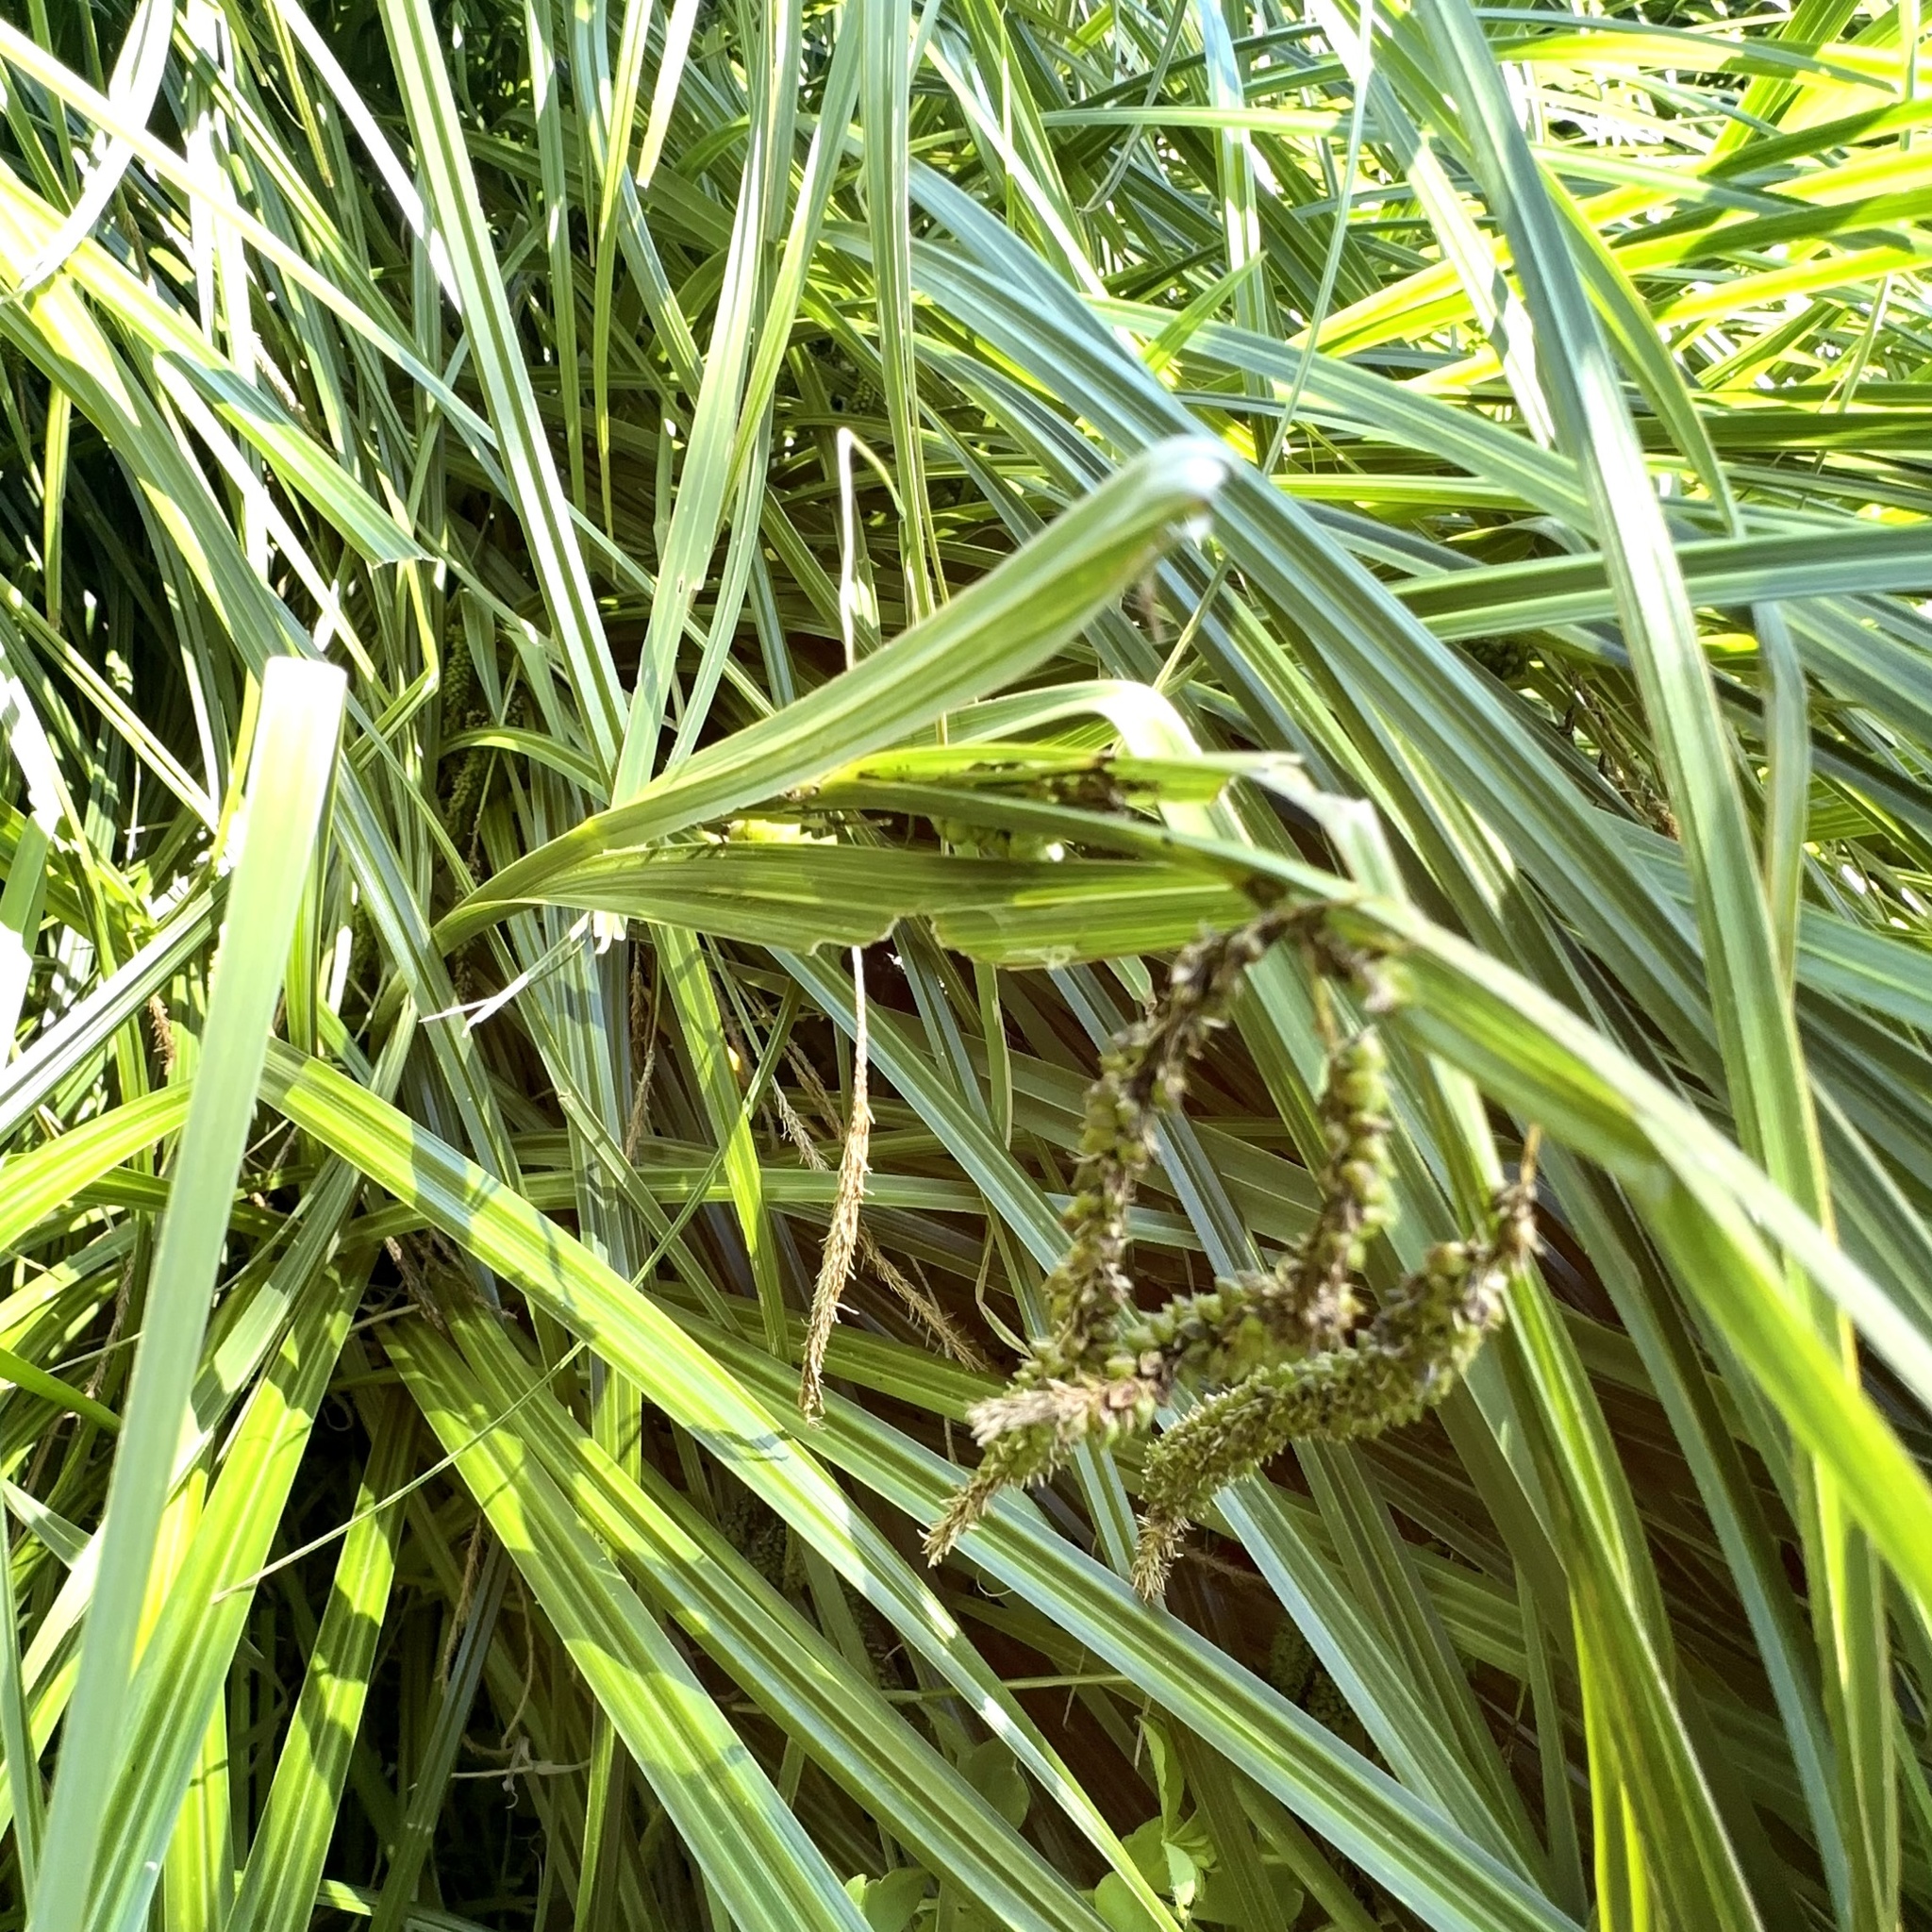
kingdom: Plantae
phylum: Tracheophyta
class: Liliopsida
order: Poales
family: Cyperaceae
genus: Carex
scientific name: Carex geminata
